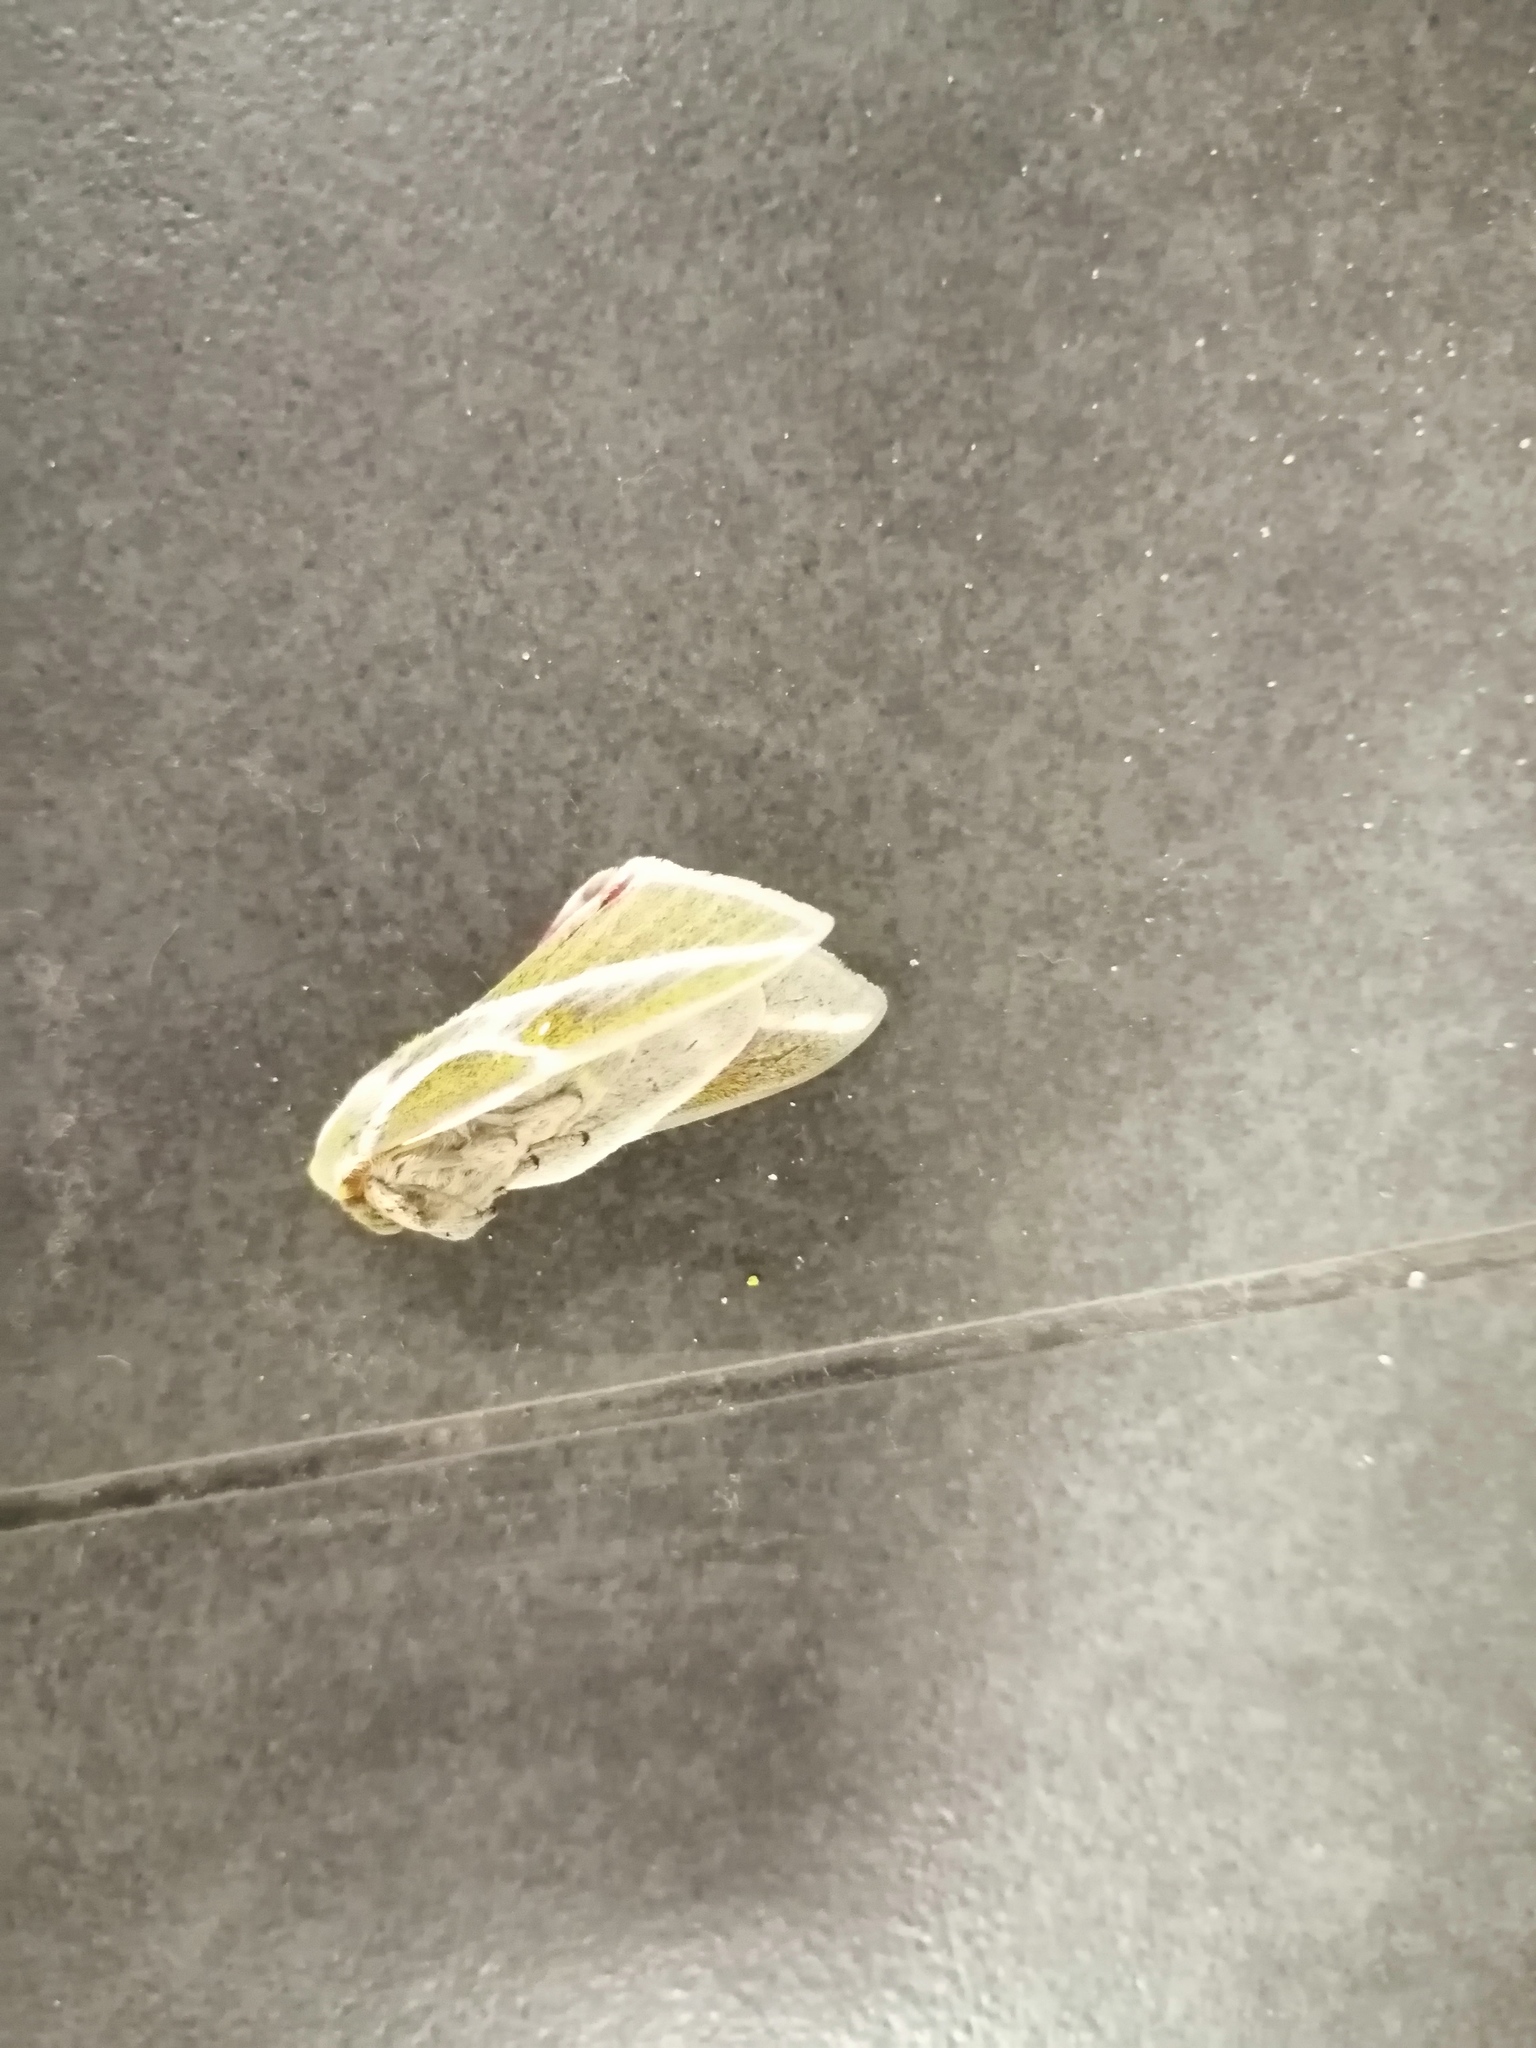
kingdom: Animalia
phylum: Arthropoda
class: Insecta
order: Lepidoptera
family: Saturniidae
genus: Syssphinx
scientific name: Syssphinx raspa
